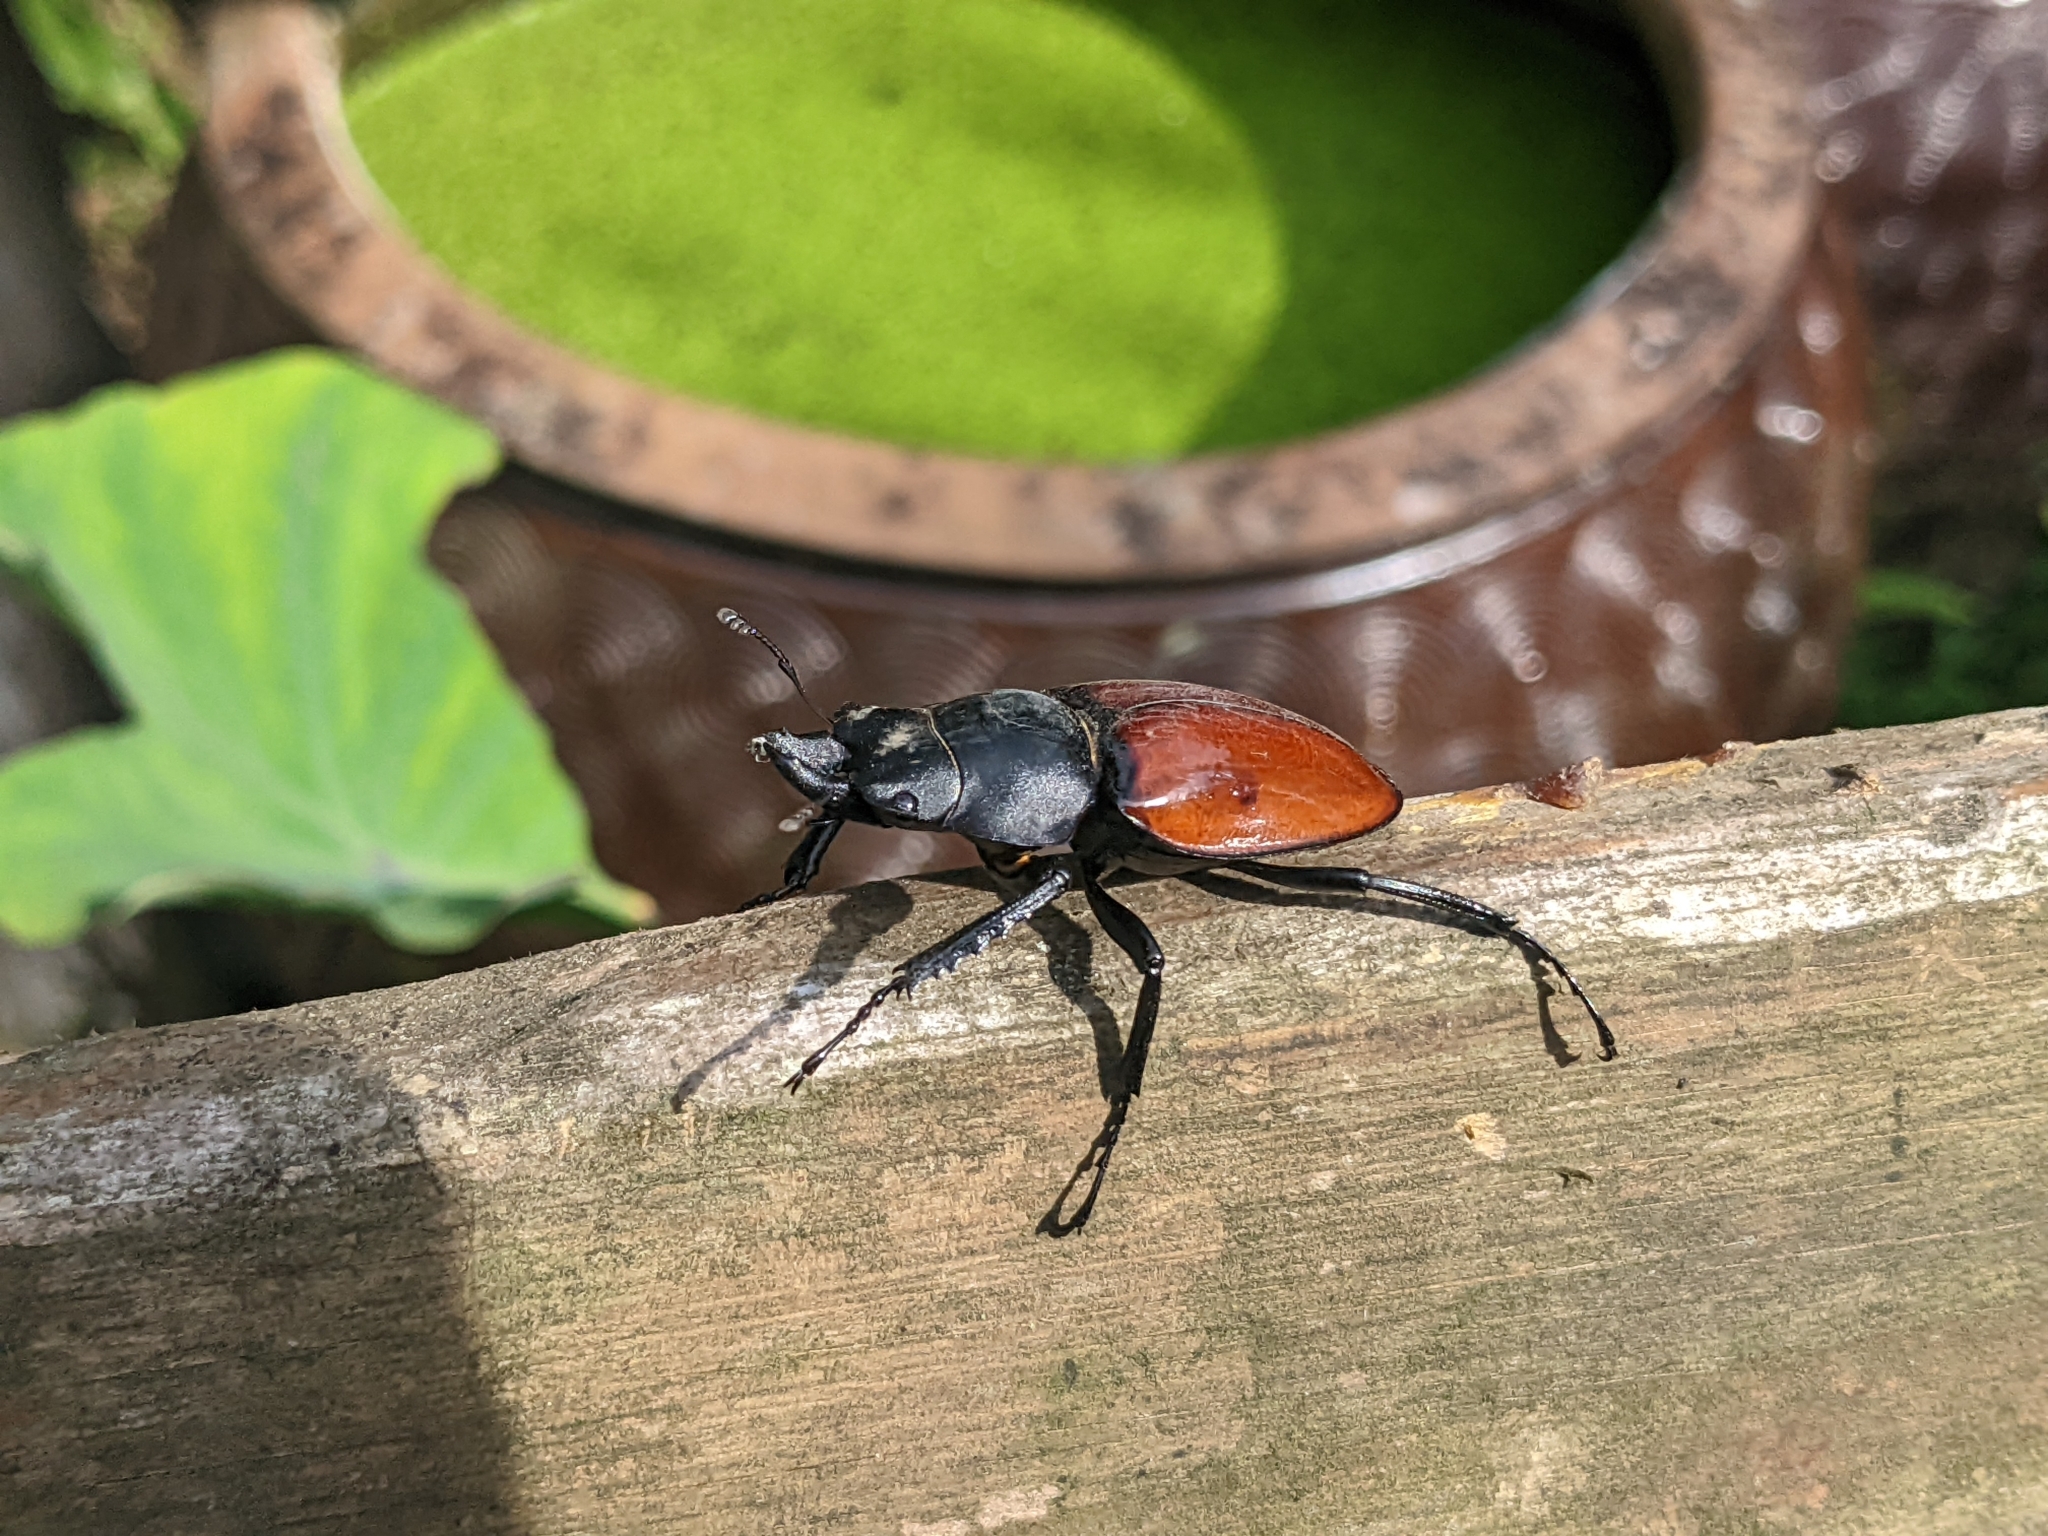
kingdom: Animalia
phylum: Arthropoda
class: Insecta
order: Coleoptera
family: Lucanidae
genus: Neolucanus
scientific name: Neolucanus swinhoei
